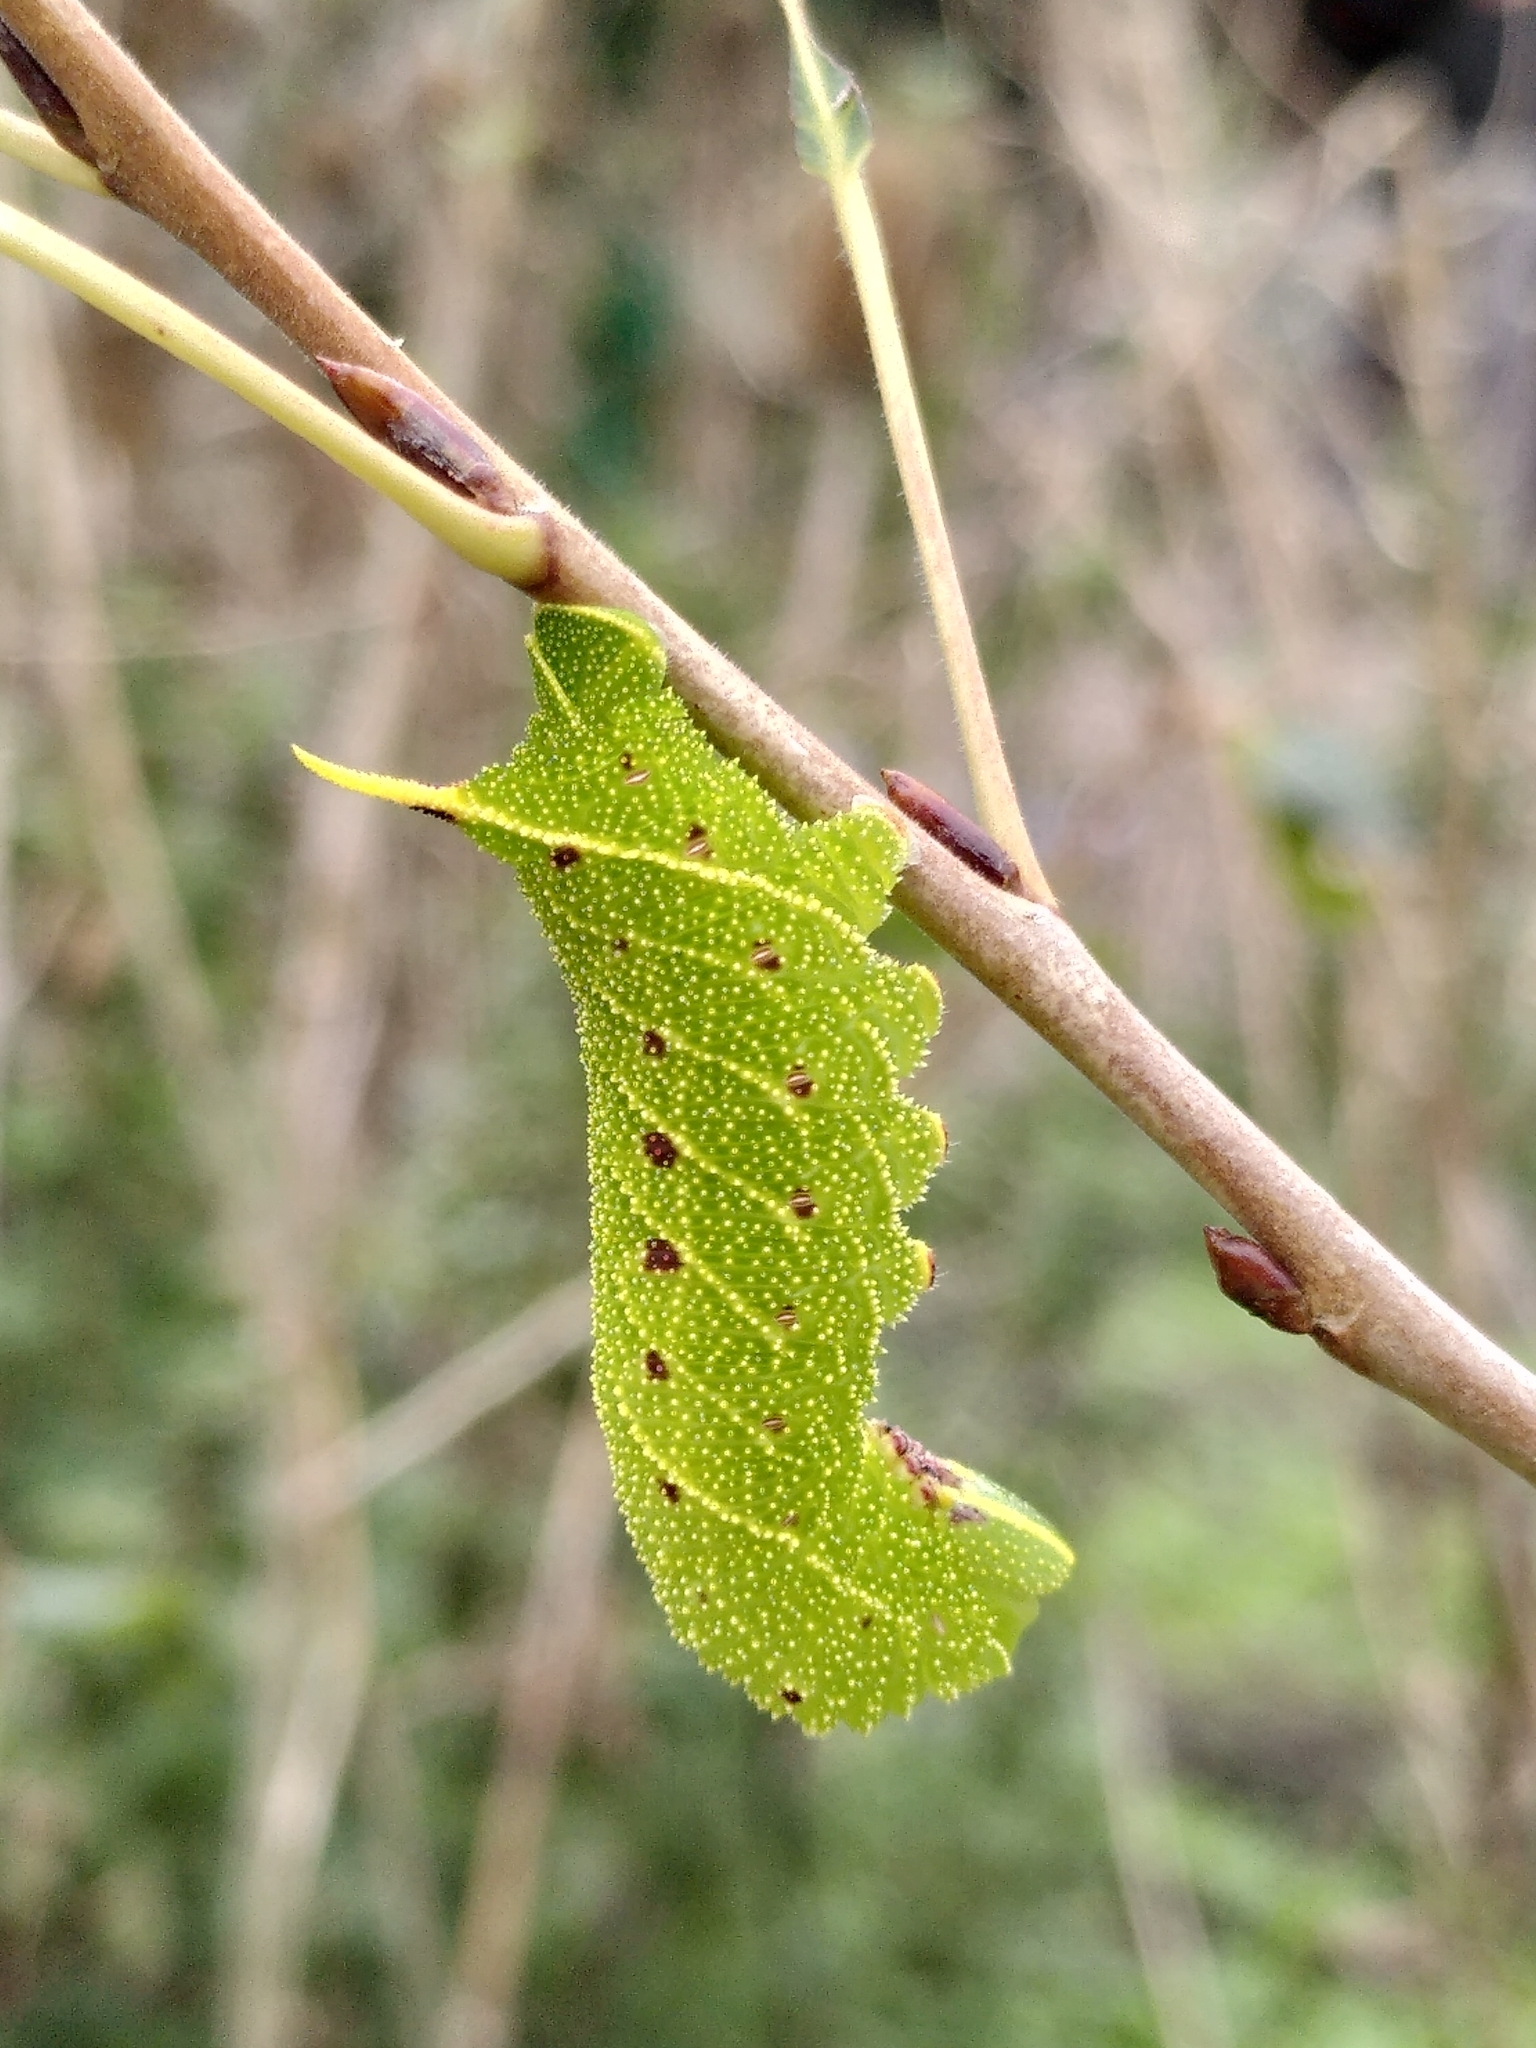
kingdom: Animalia
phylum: Arthropoda
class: Insecta
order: Lepidoptera
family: Sphingidae
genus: Laothoe
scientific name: Laothoe populi
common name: Poplar hawk-moth
